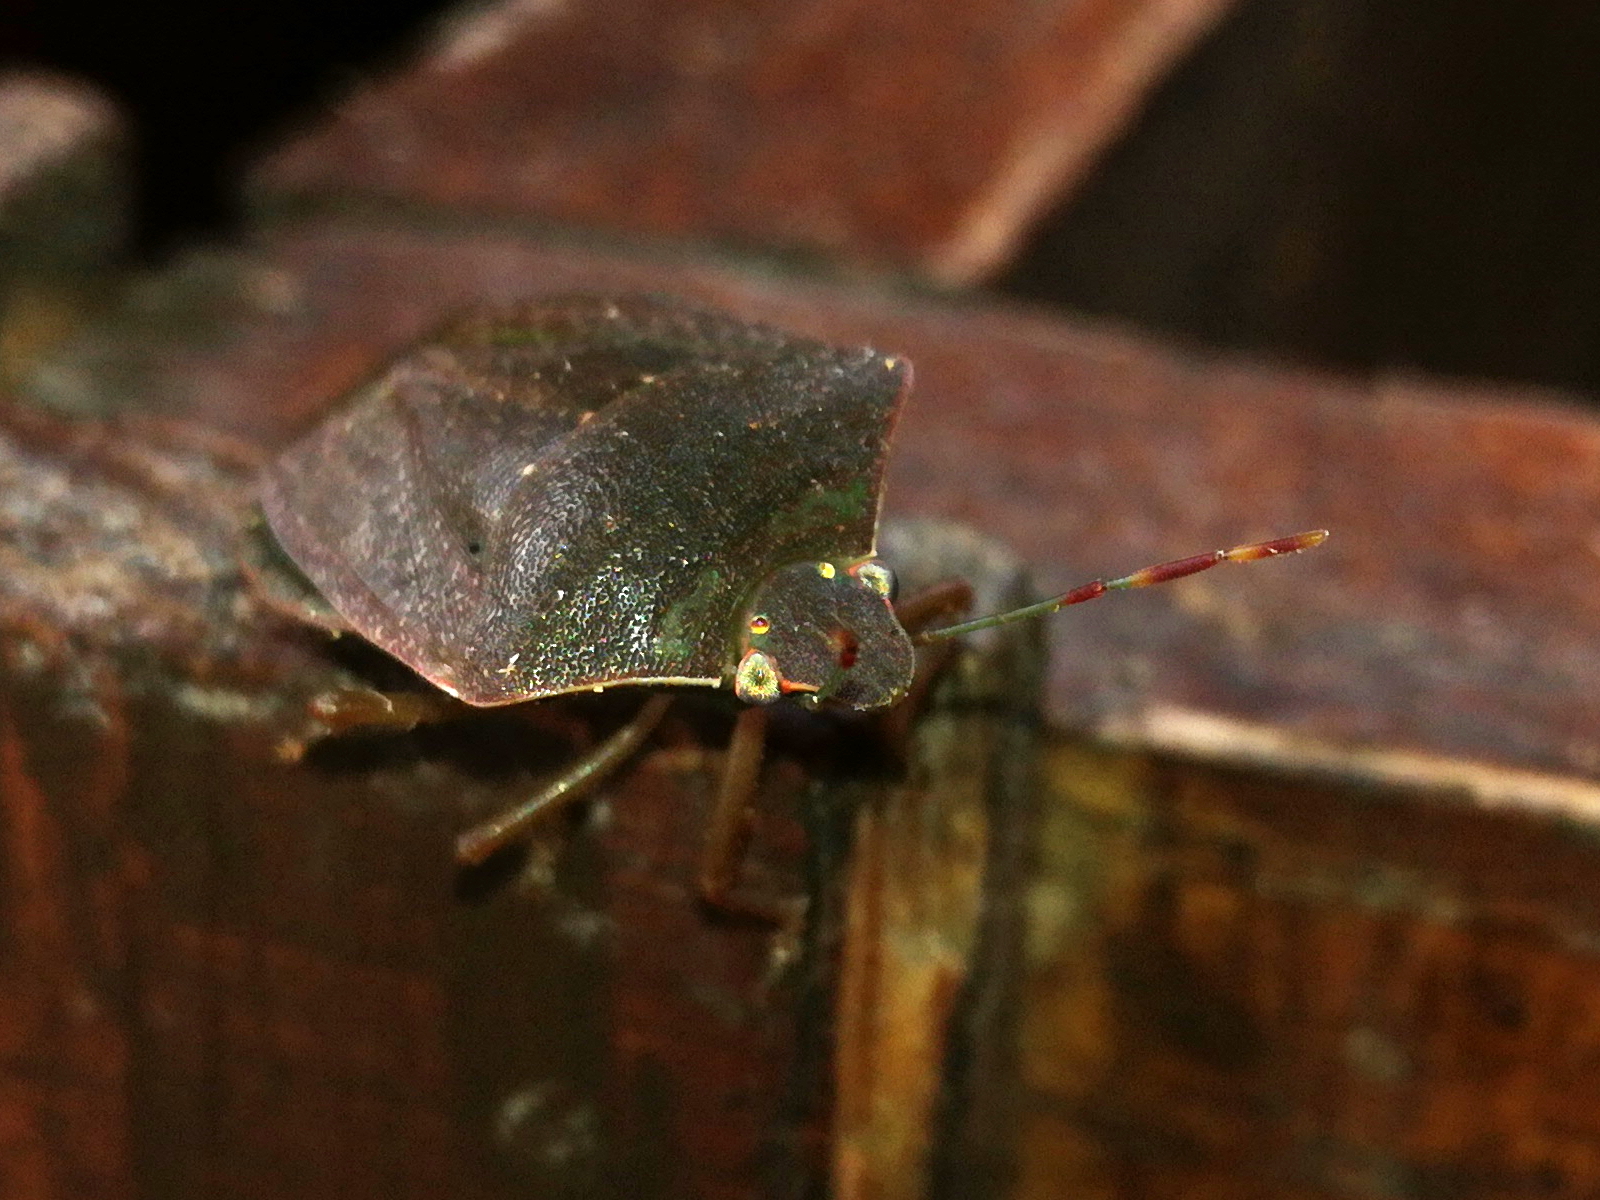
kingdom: Animalia
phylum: Arthropoda
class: Insecta
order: Hemiptera
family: Pentatomidae
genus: Nezara
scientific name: Nezara viridula
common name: Southern green stink bug
